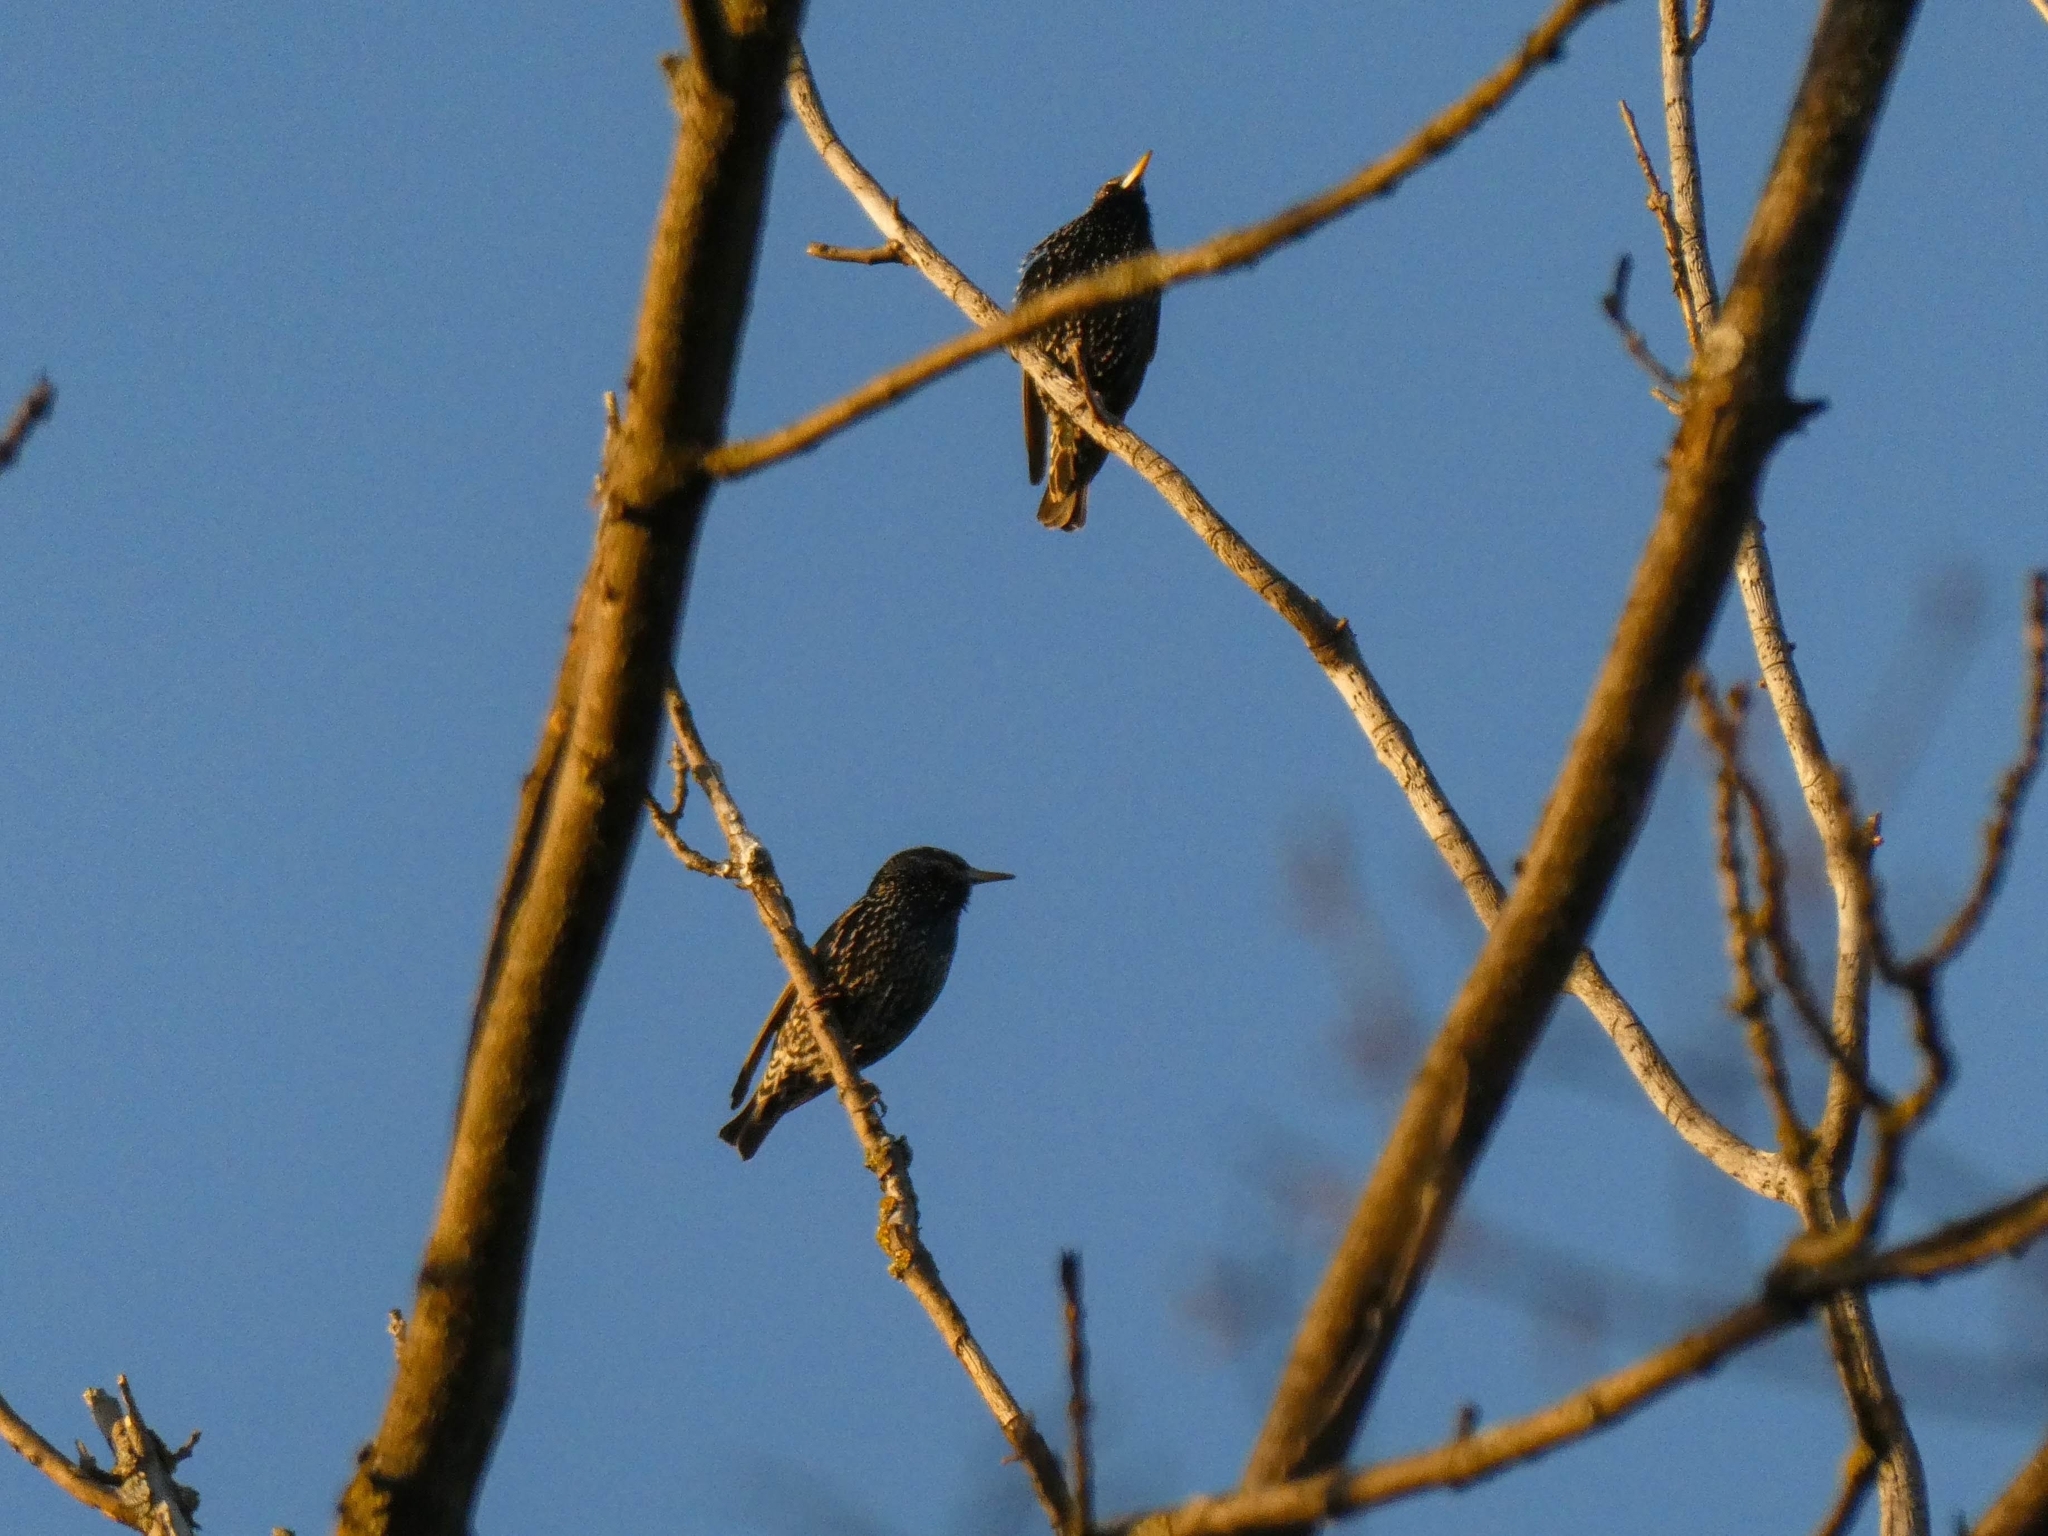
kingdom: Animalia
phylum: Chordata
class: Aves
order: Passeriformes
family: Sturnidae
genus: Sturnus
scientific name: Sturnus vulgaris
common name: Common starling
